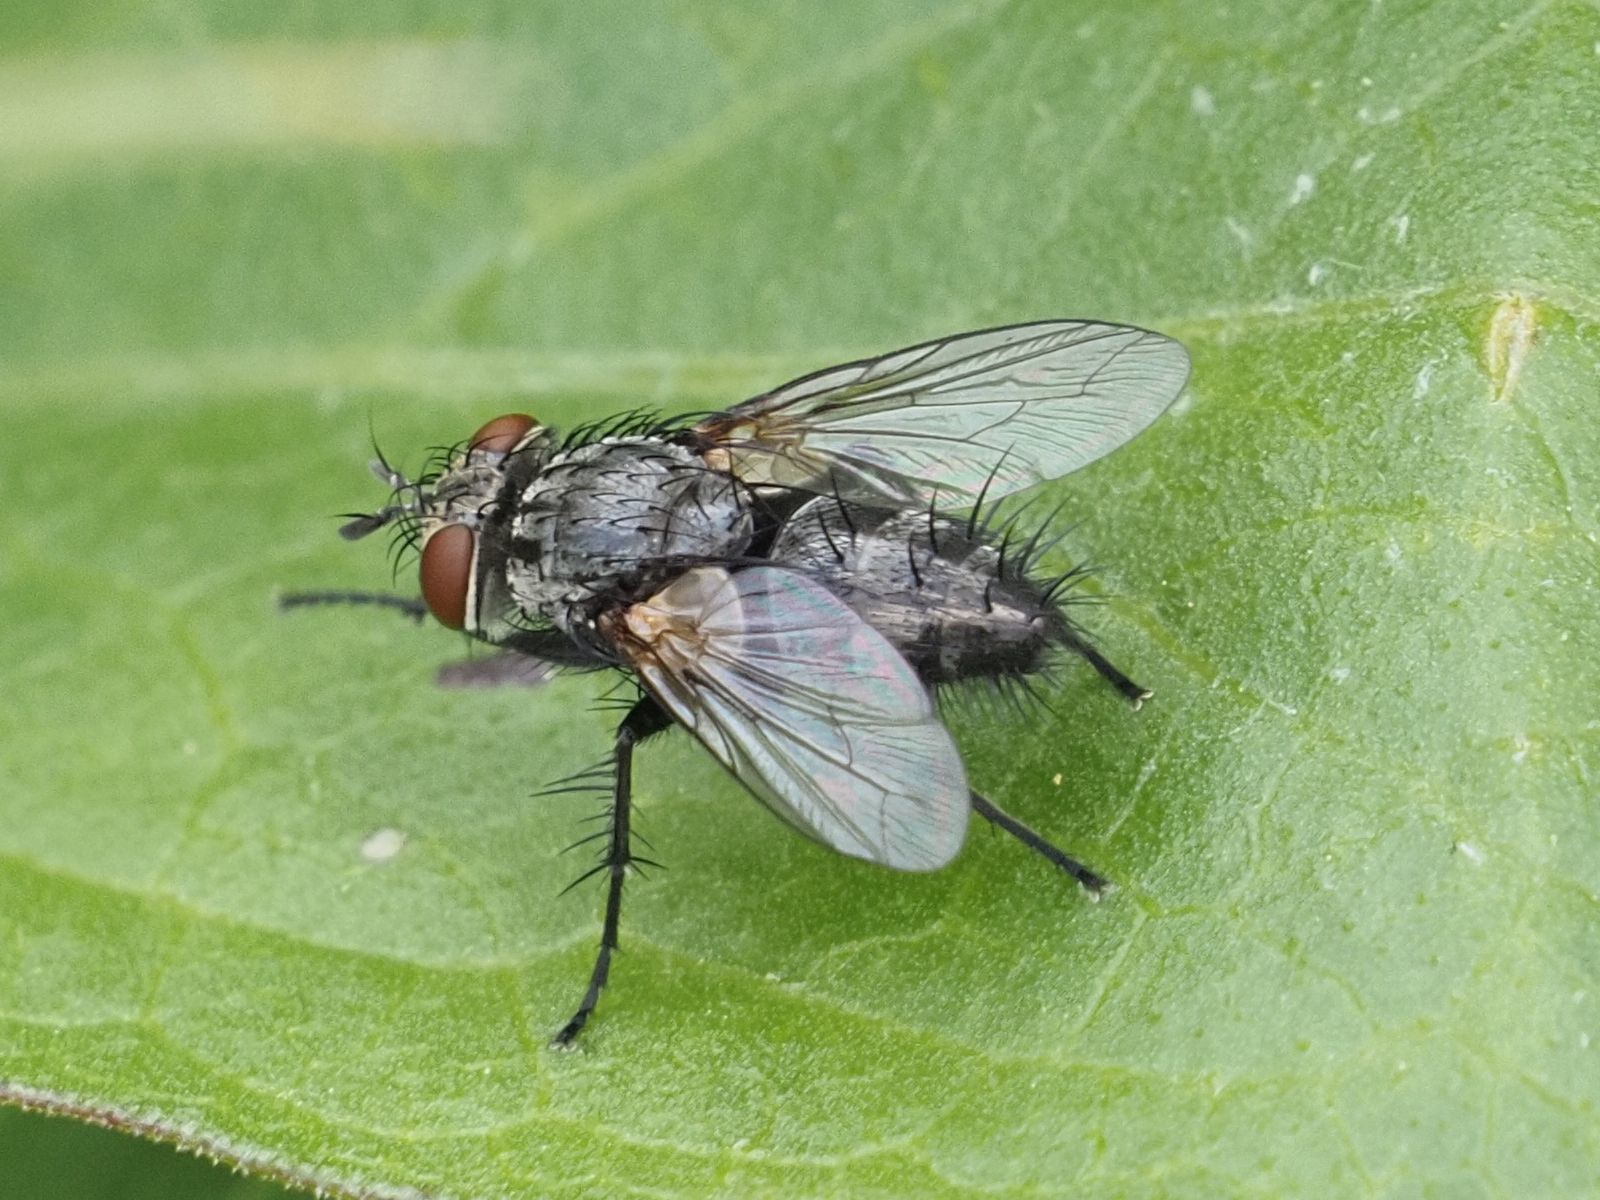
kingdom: Animalia
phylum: Arthropoda
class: Insecta
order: Diptera
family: Tachinidae
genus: Voria
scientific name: Voria ruralis
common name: Parasitic fly
